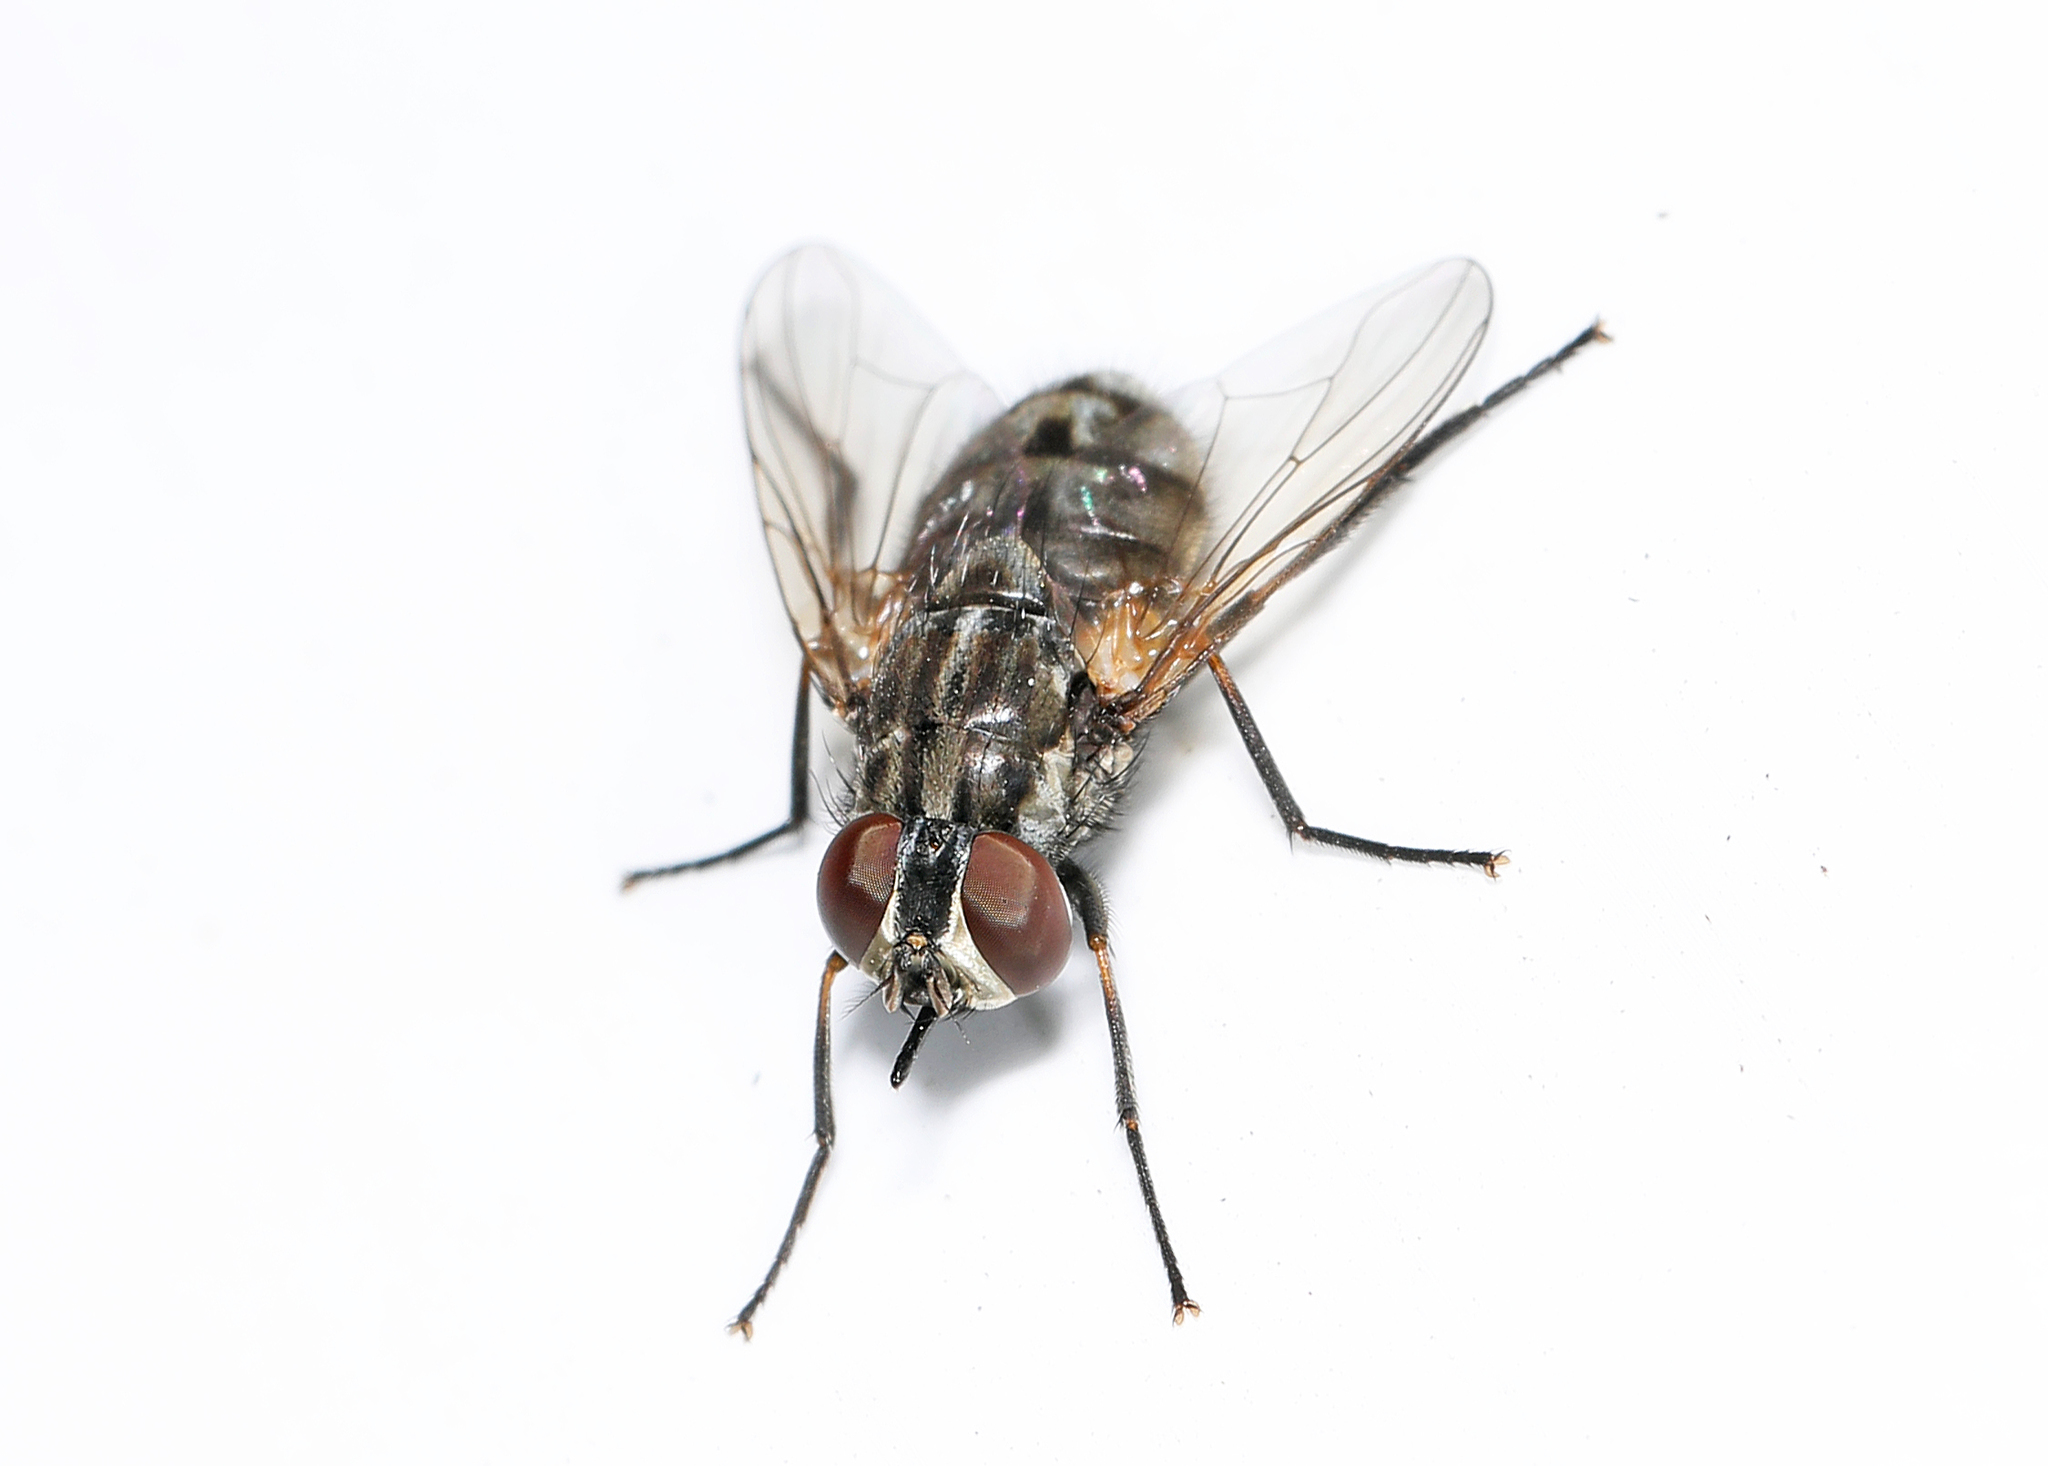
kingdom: Animalia
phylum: Arthropoda
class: Insecta
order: Diptera
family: Muscidae
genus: Stomoxys
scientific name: Stomoxys calcitrans
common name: Stable fly
